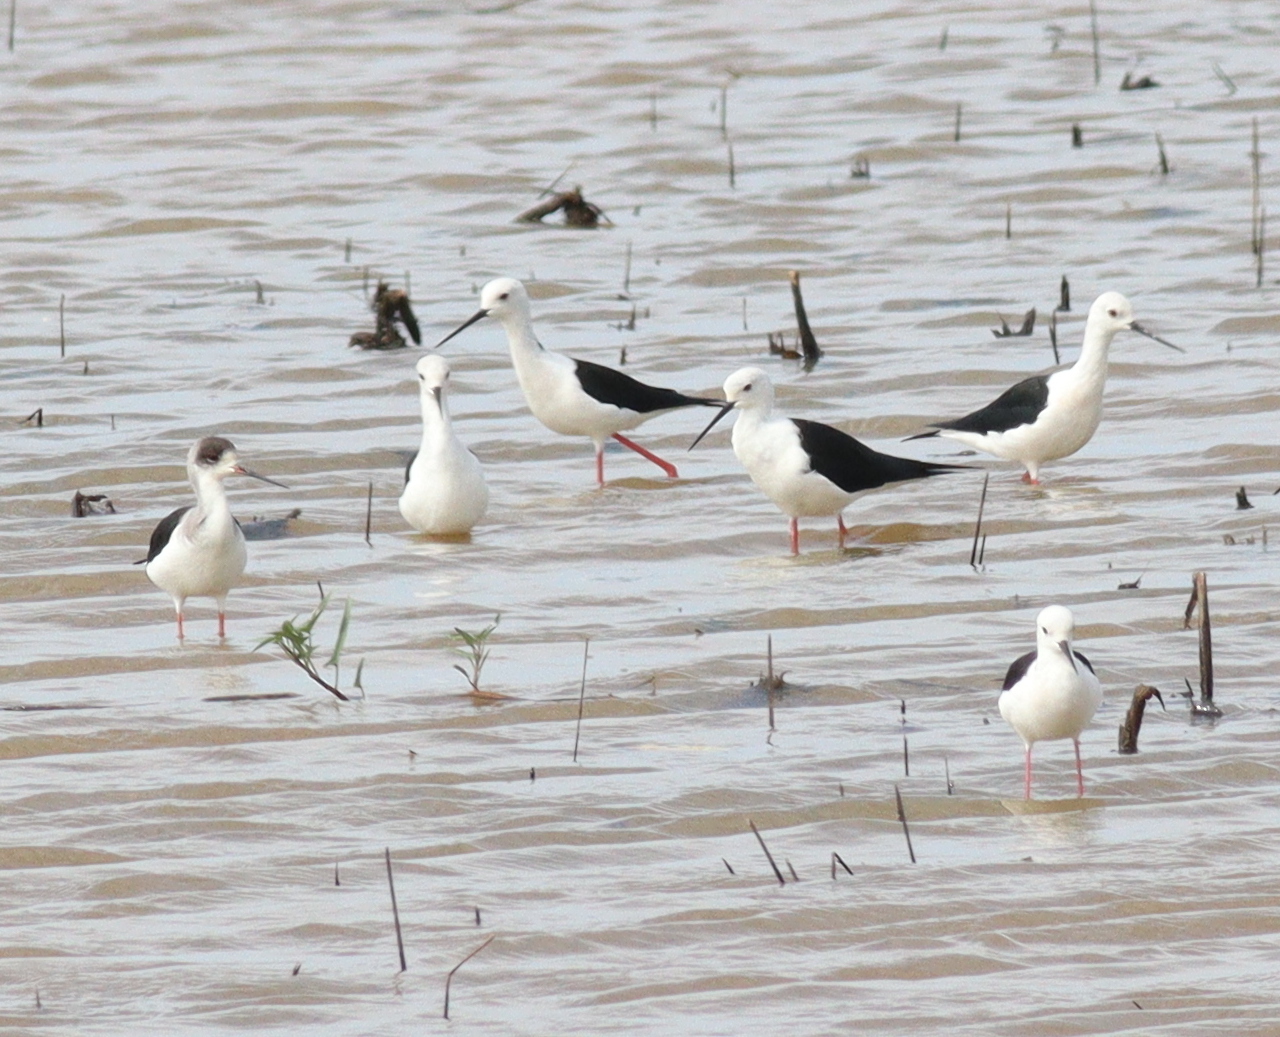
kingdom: Animalia
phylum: Chordata
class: Aves
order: Charadriiformes
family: Recurvirostridae
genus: Himantopus
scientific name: Himantopus himantopus
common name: Black-winged stilt
